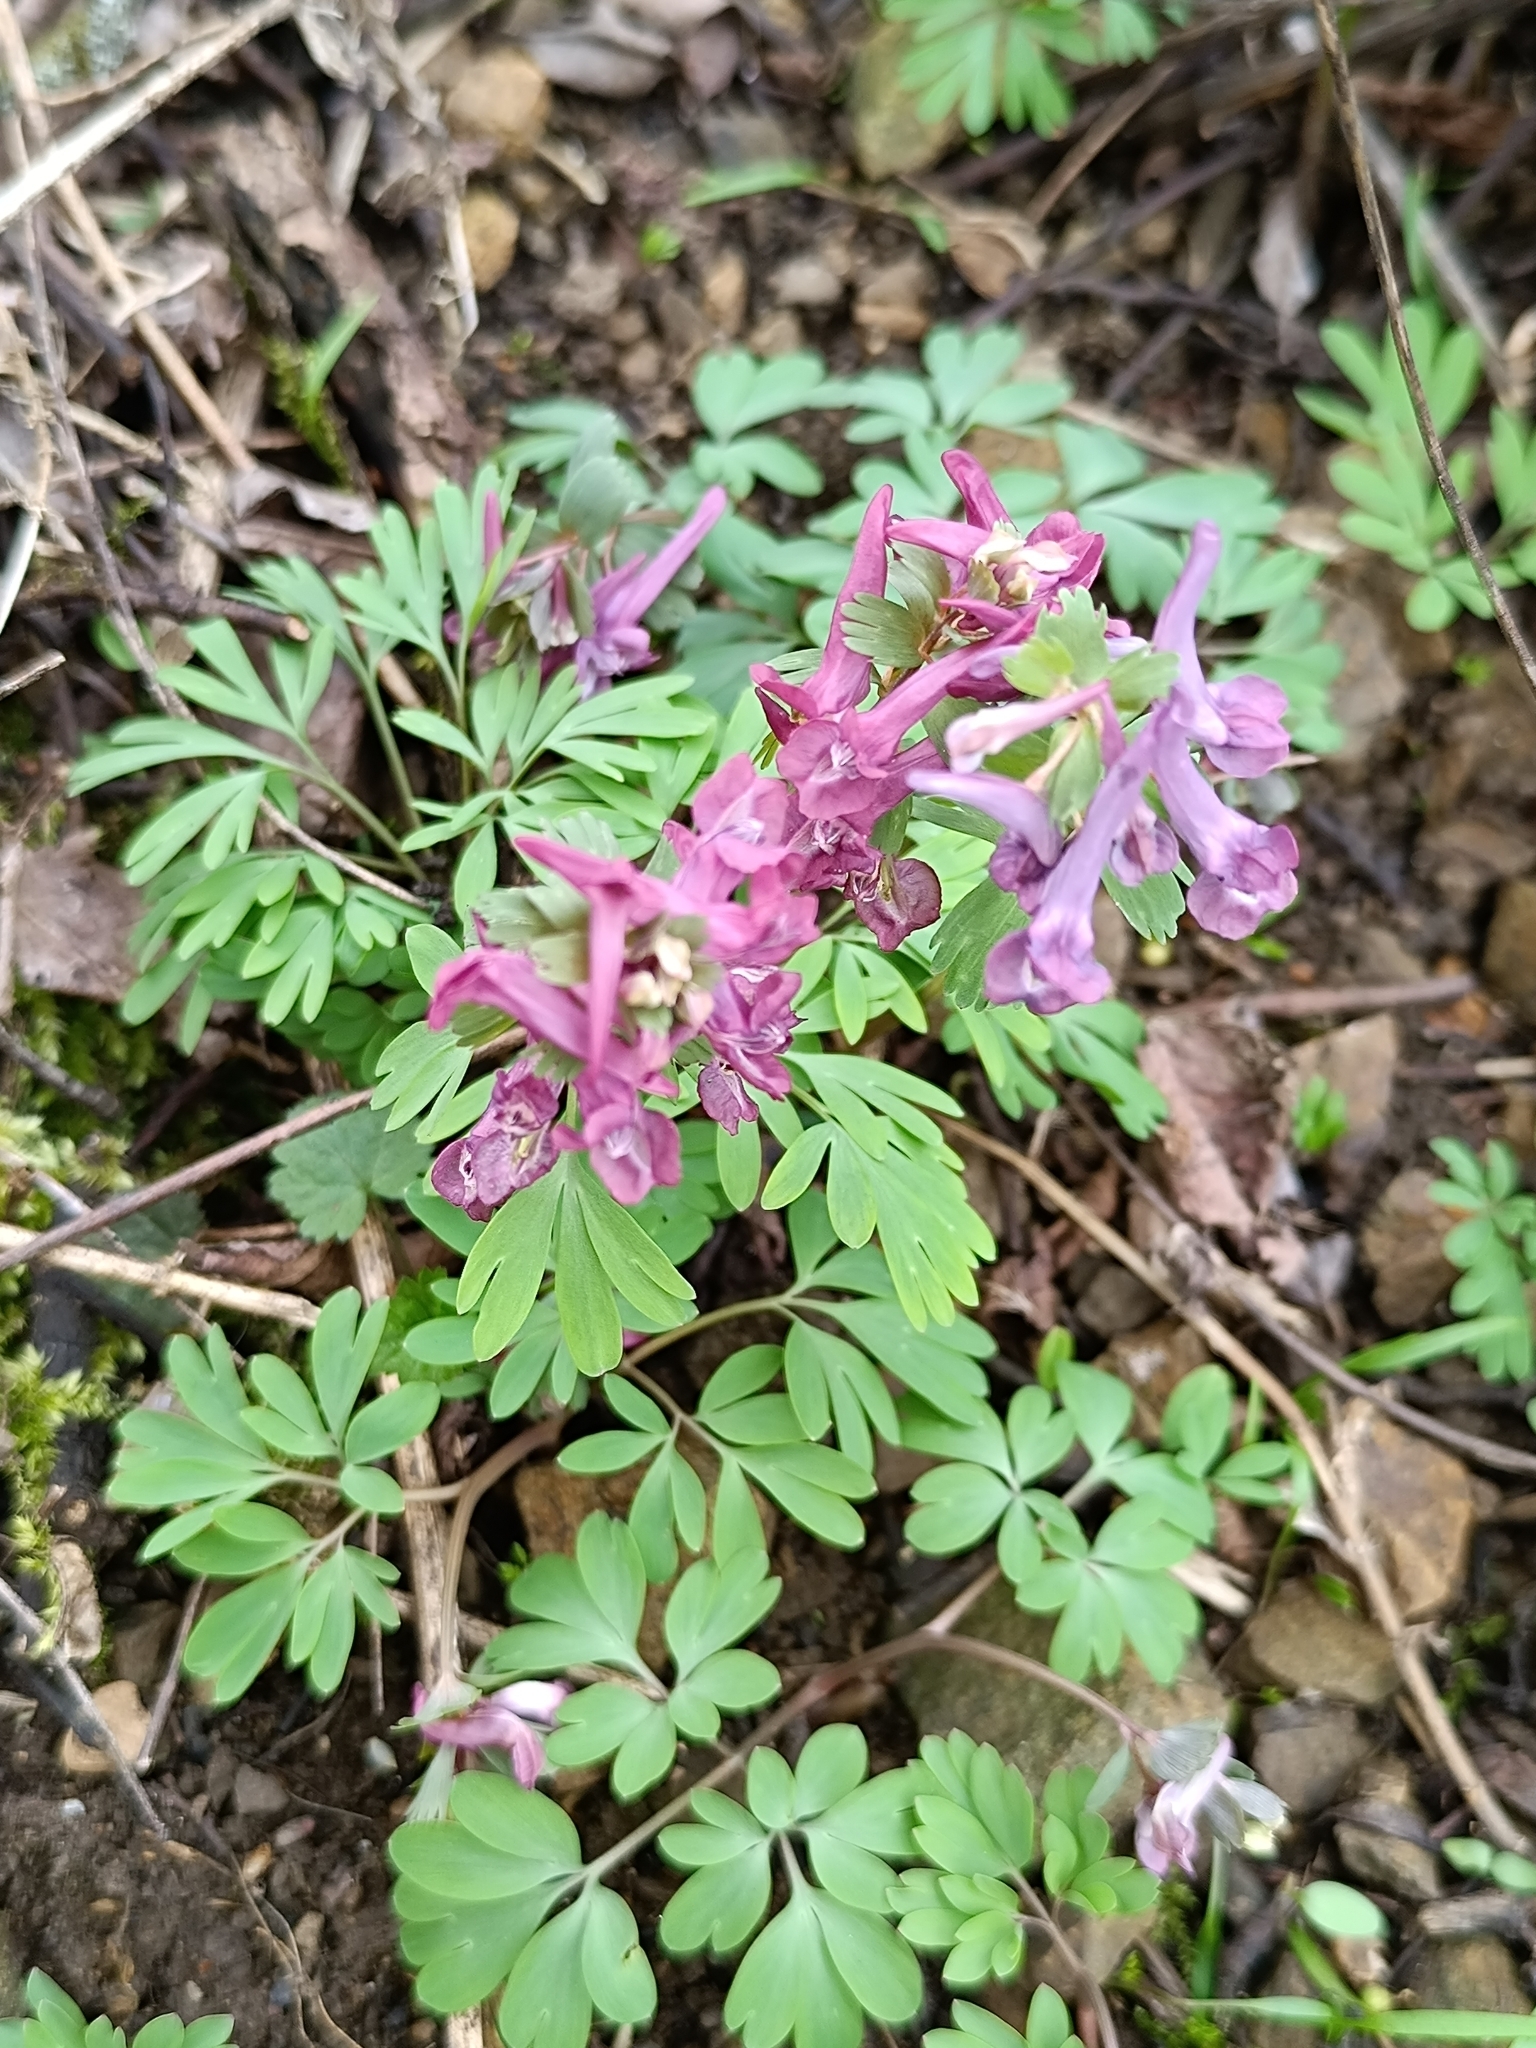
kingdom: Plantae
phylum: Tracheophyta
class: Magnoliopsida
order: Ranunculales
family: Papaveraceae
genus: Corydalis
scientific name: Corydalis solida
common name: Bird-in-a-bush
